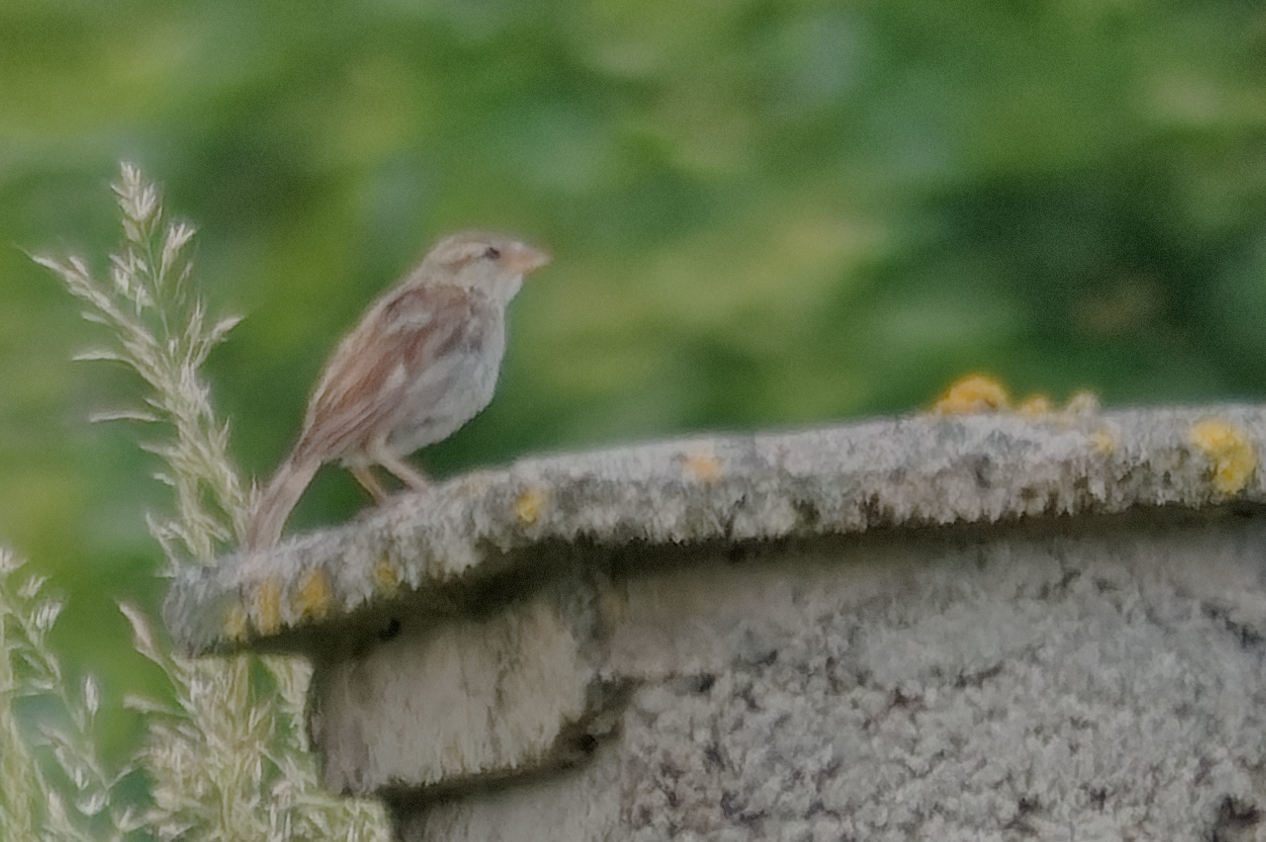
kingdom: Animalia
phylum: Chordata
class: Aves
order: Passeriformes
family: Passeridae
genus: Passer
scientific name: Passer domesticus
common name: House sparrow
